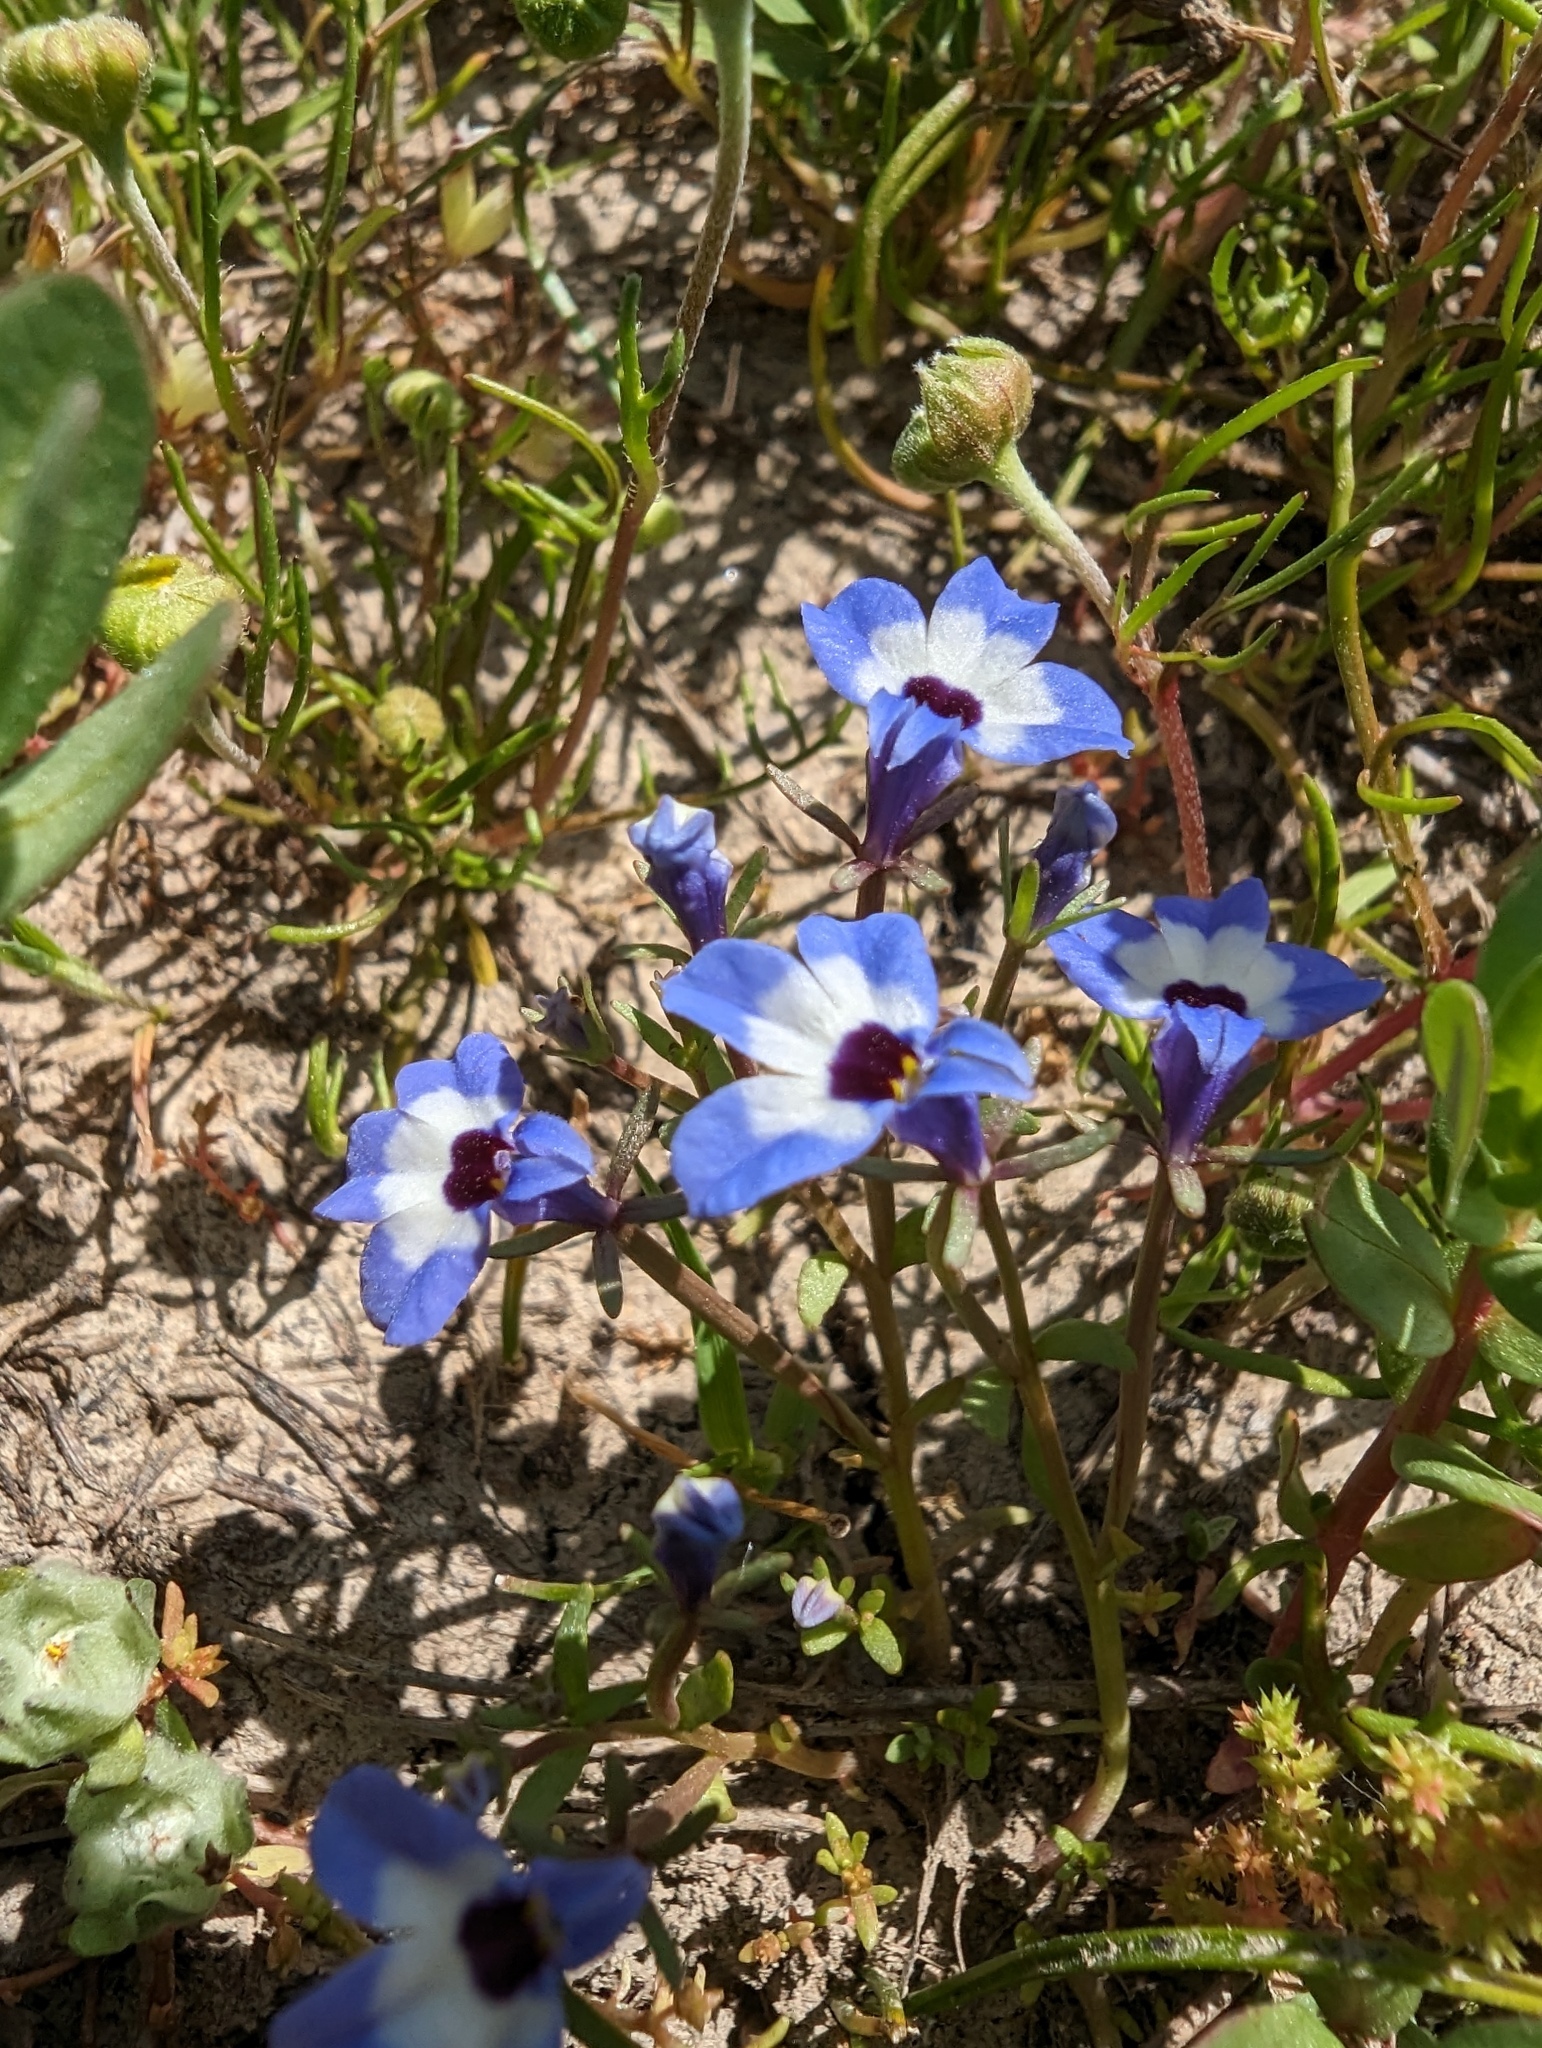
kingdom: Plantae
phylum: Tracheophyta
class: Magnoliopsida
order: Asterales
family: Campanulaceae
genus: Downingia
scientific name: Downingia concolor
